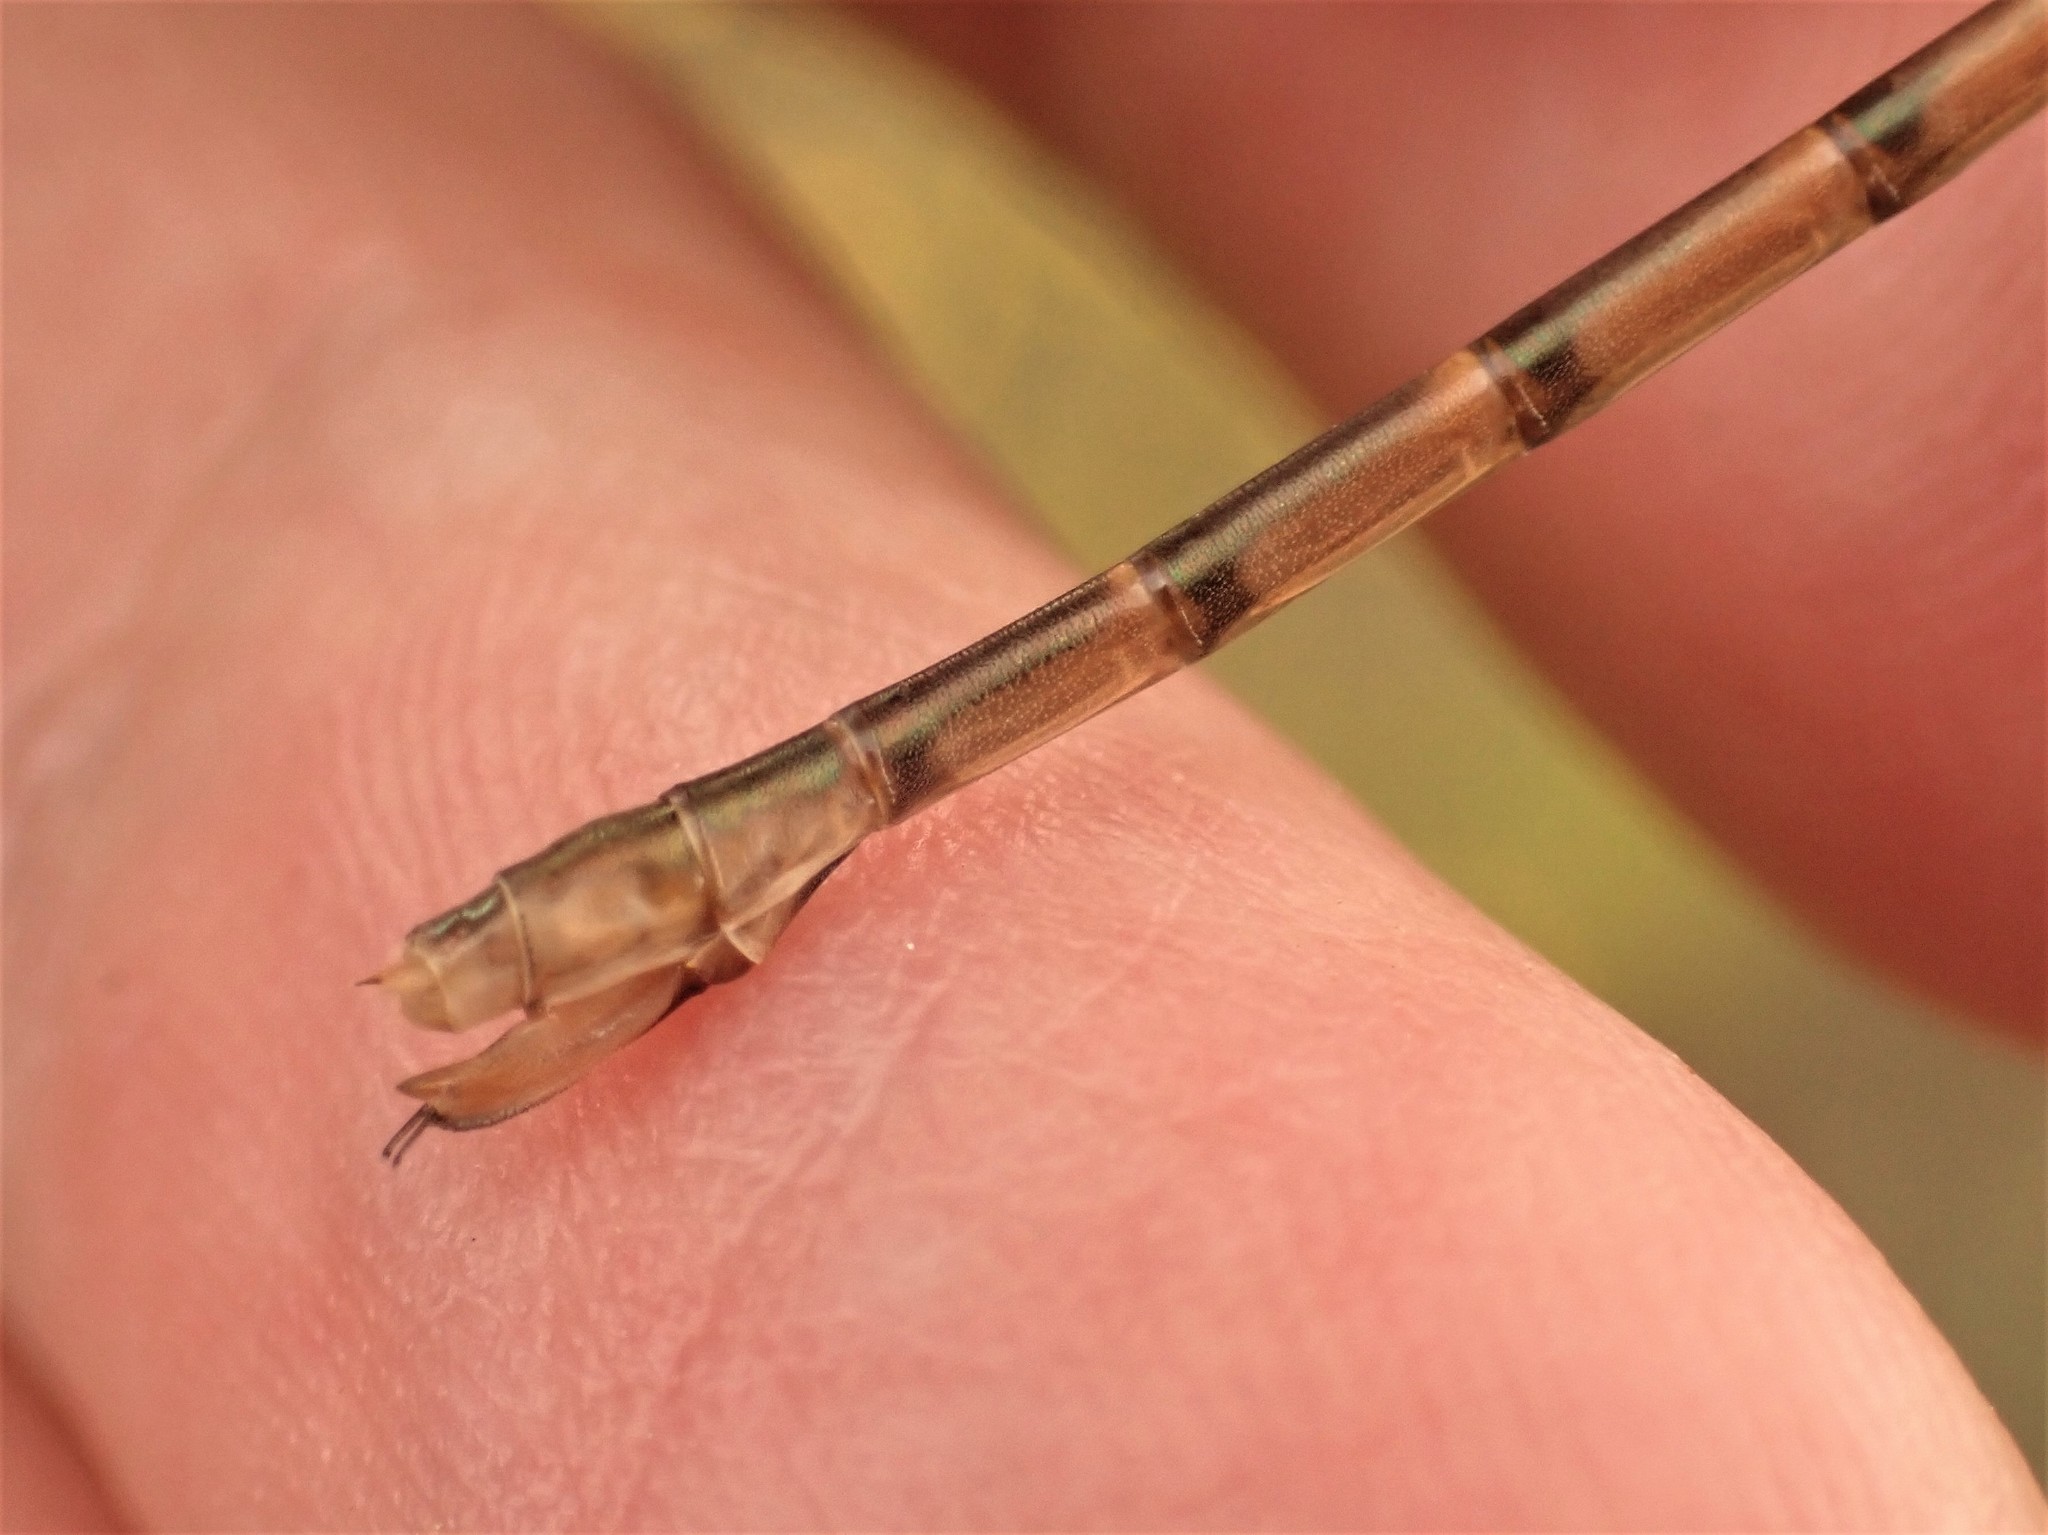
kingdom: Animalia
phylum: Arthropoda
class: Insecta
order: Odonata
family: Lestidae
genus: Lestes
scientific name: Lestes forcipatus
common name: Sweetflag spreadwing
